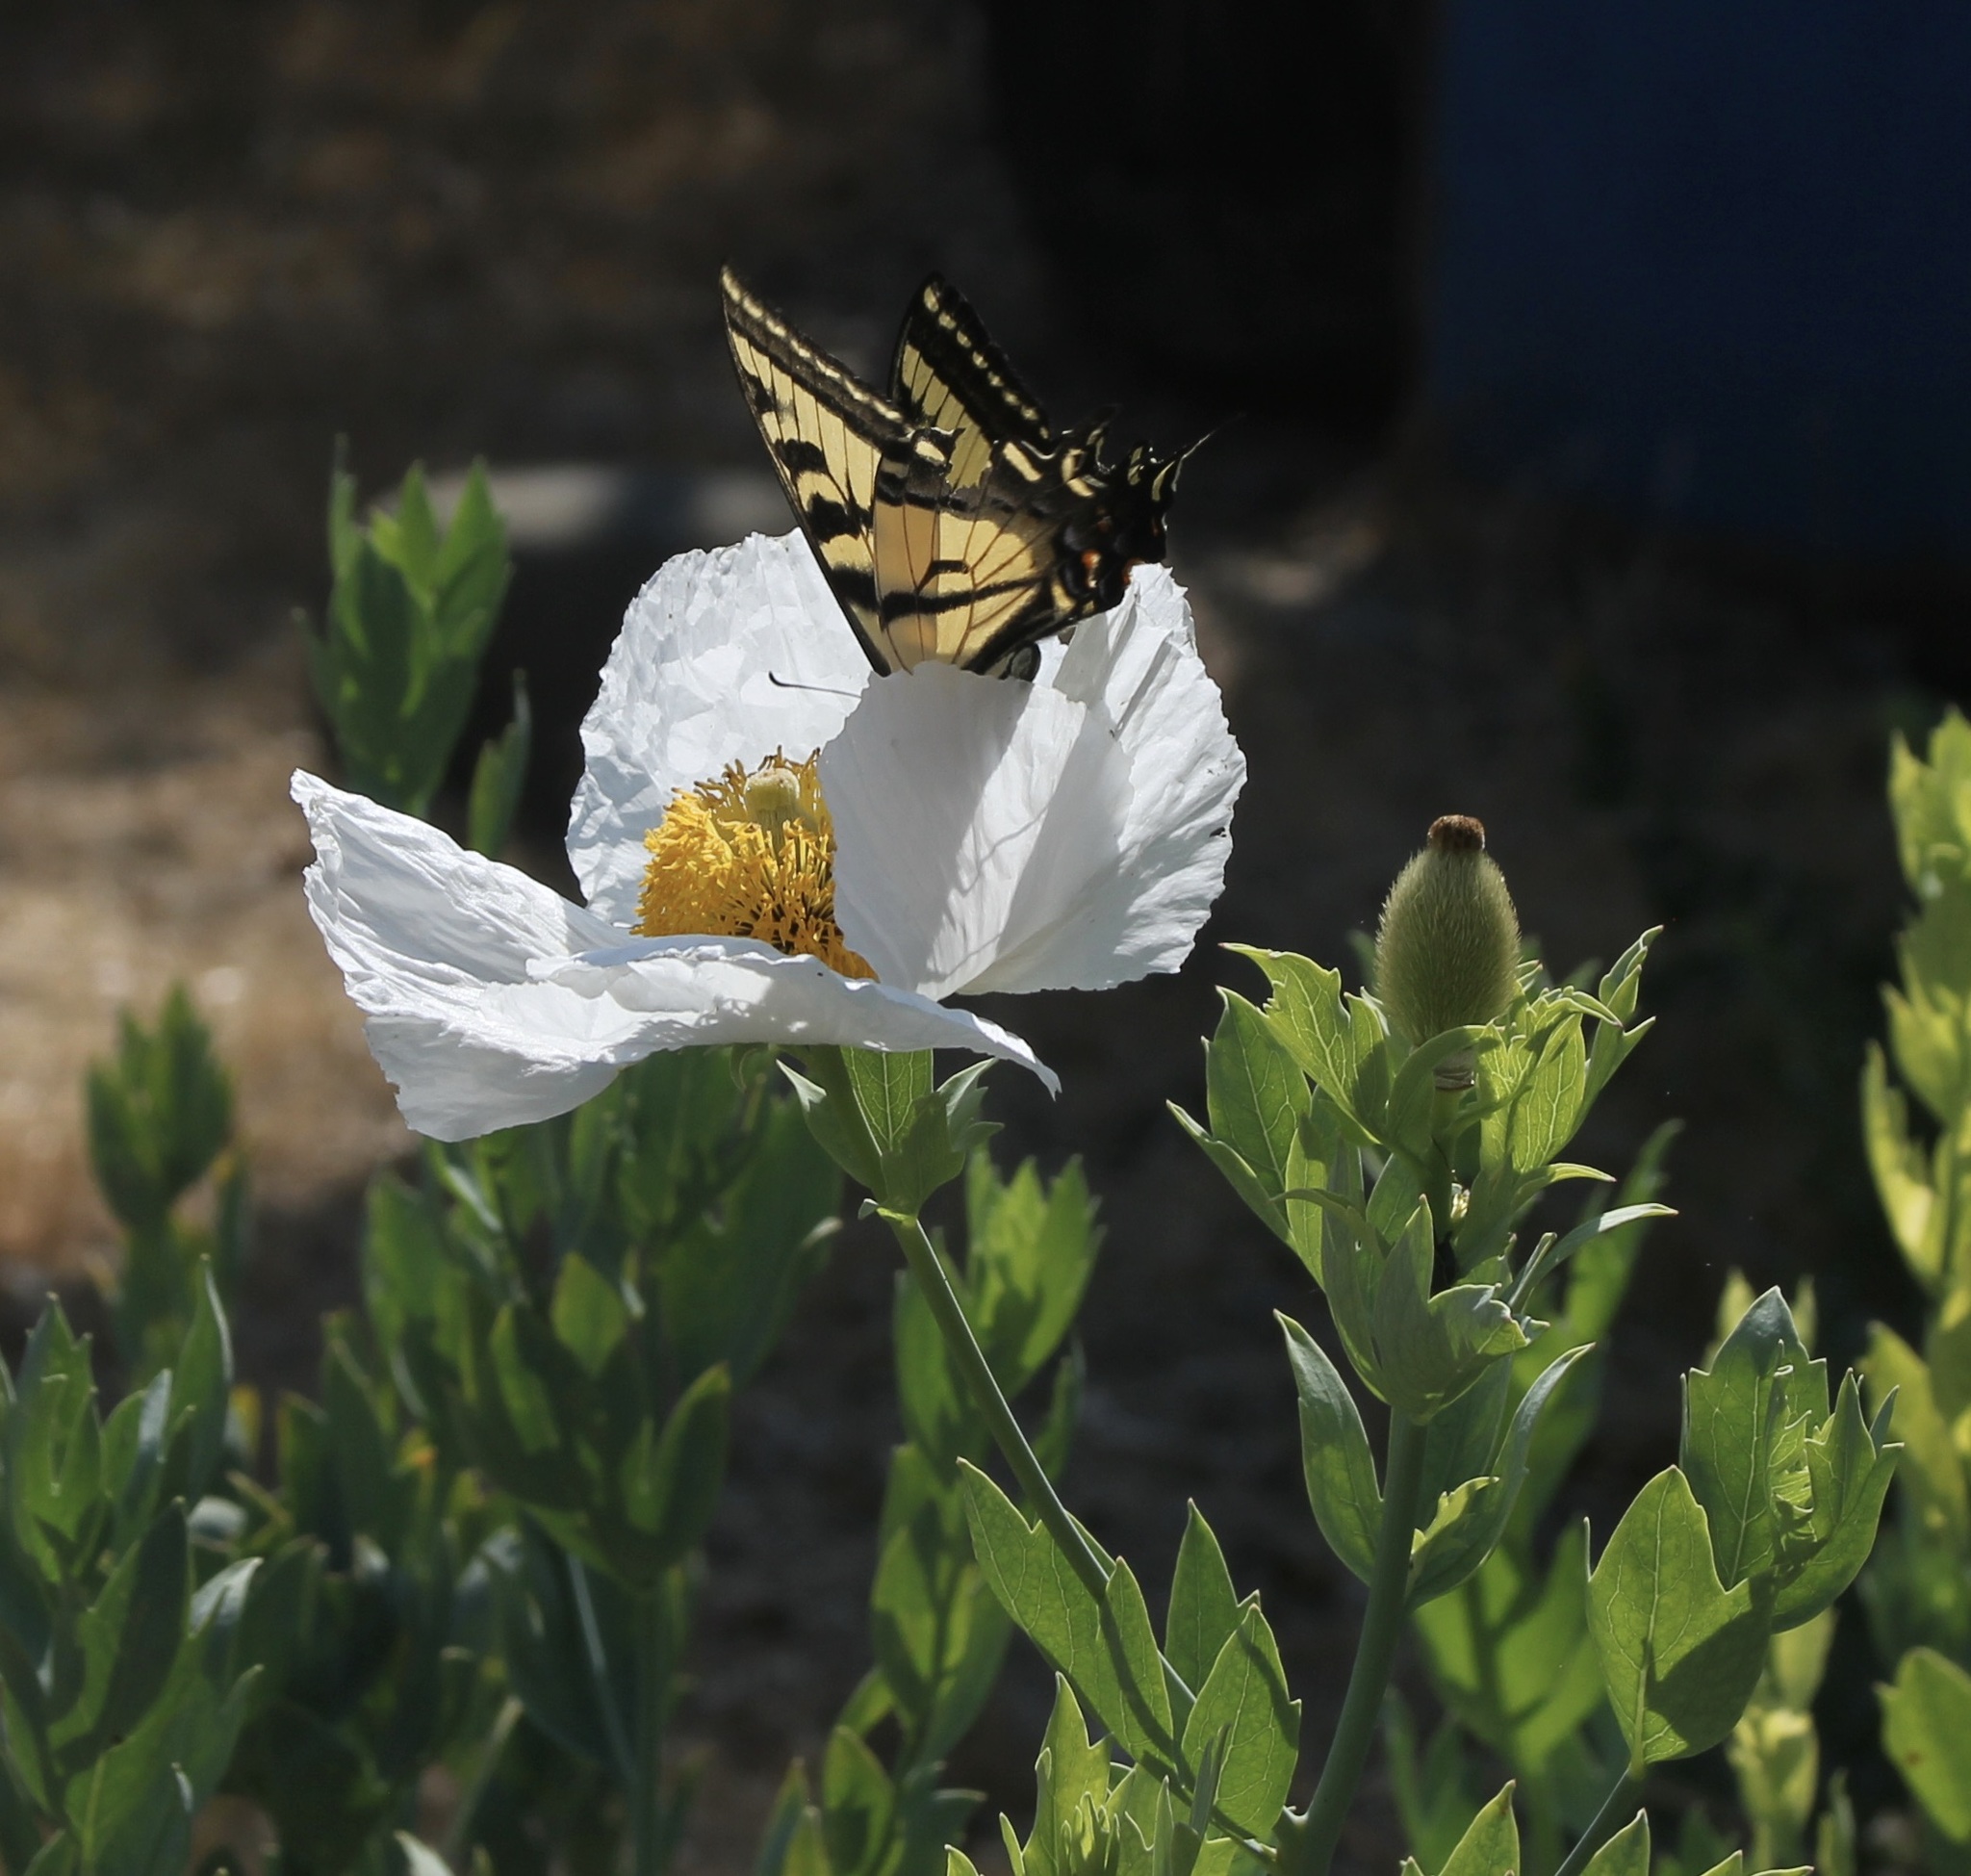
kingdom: Animalia
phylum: Arthropoda
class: Insecta
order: Lepidoptera
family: Papilionidae
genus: Papilio
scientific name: Papilio rutulus
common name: Western tiger swallowtail
